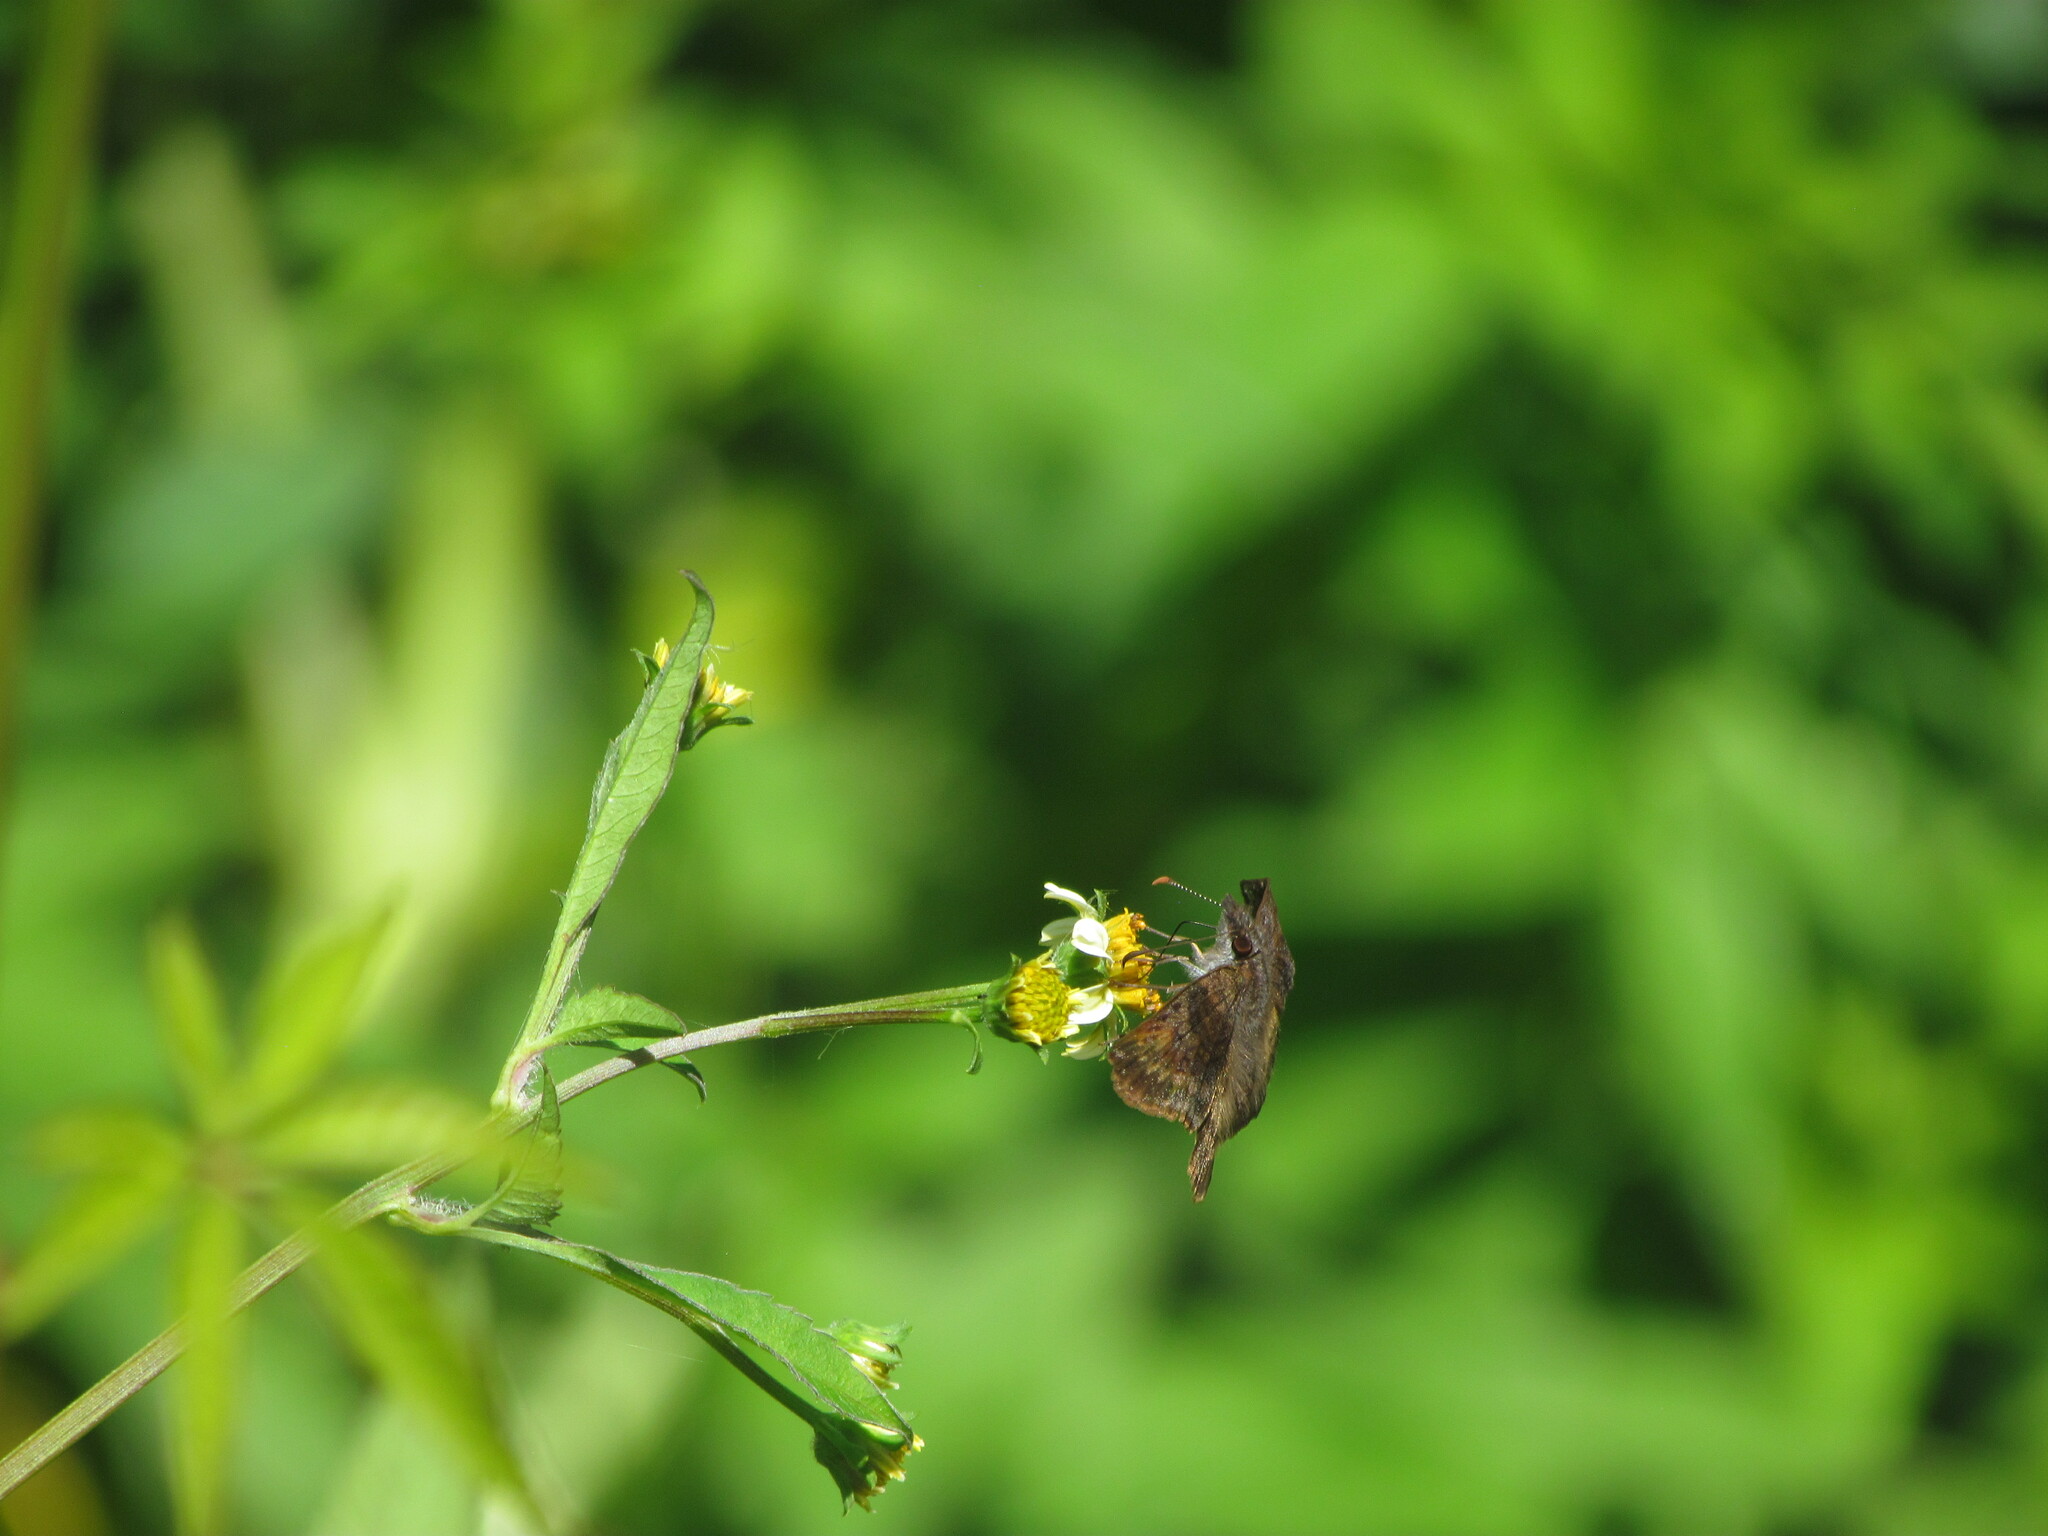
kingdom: Animalia
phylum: Arthropoda
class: Insecta
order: Lepidoptera
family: Hesperiidae
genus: Theagenes
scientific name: Theagenes dichrous
